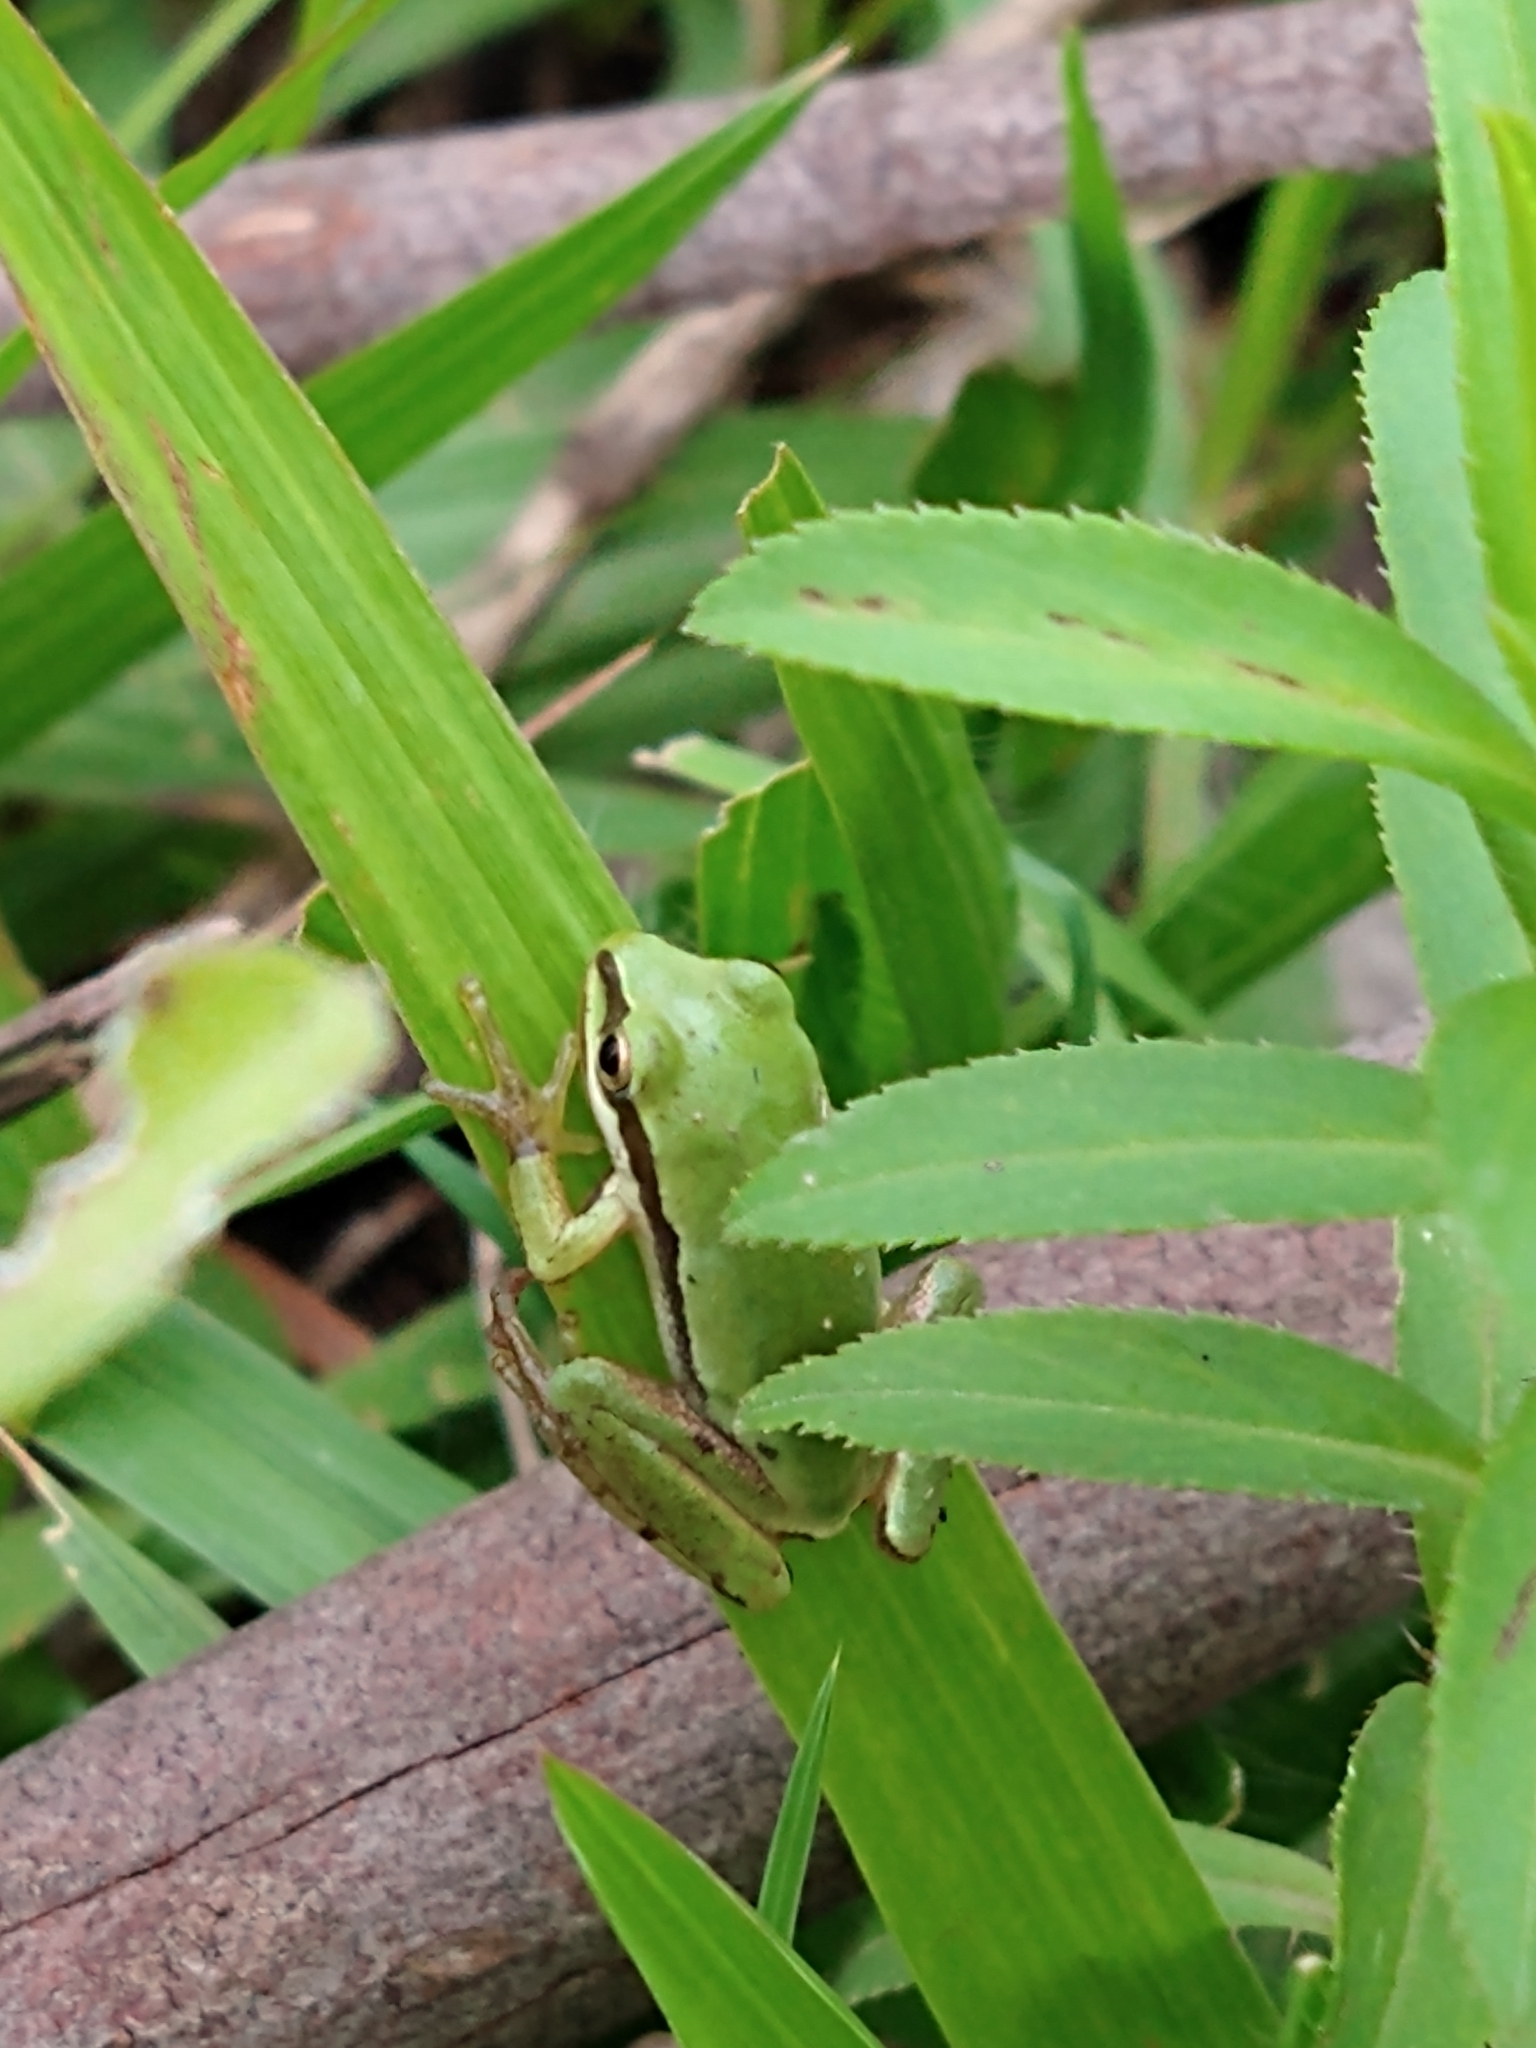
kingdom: Animalia
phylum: Chordata
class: Amphibia
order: Anura
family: Hylidae
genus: Dryophytes
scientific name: Dryophytes eximius
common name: Mountain treefrog
